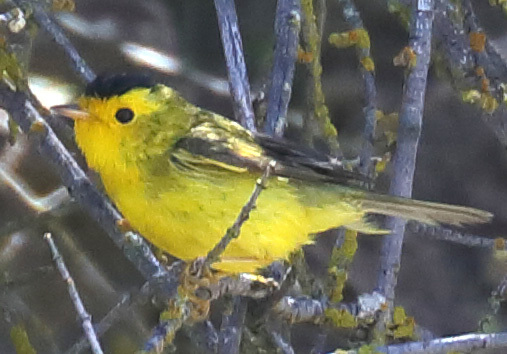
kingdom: Animalia
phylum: Chordata
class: Aves
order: Passeriformes
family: Parulidae
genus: Cardellina
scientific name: Cardellina pusilla
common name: Wilson's warbler
